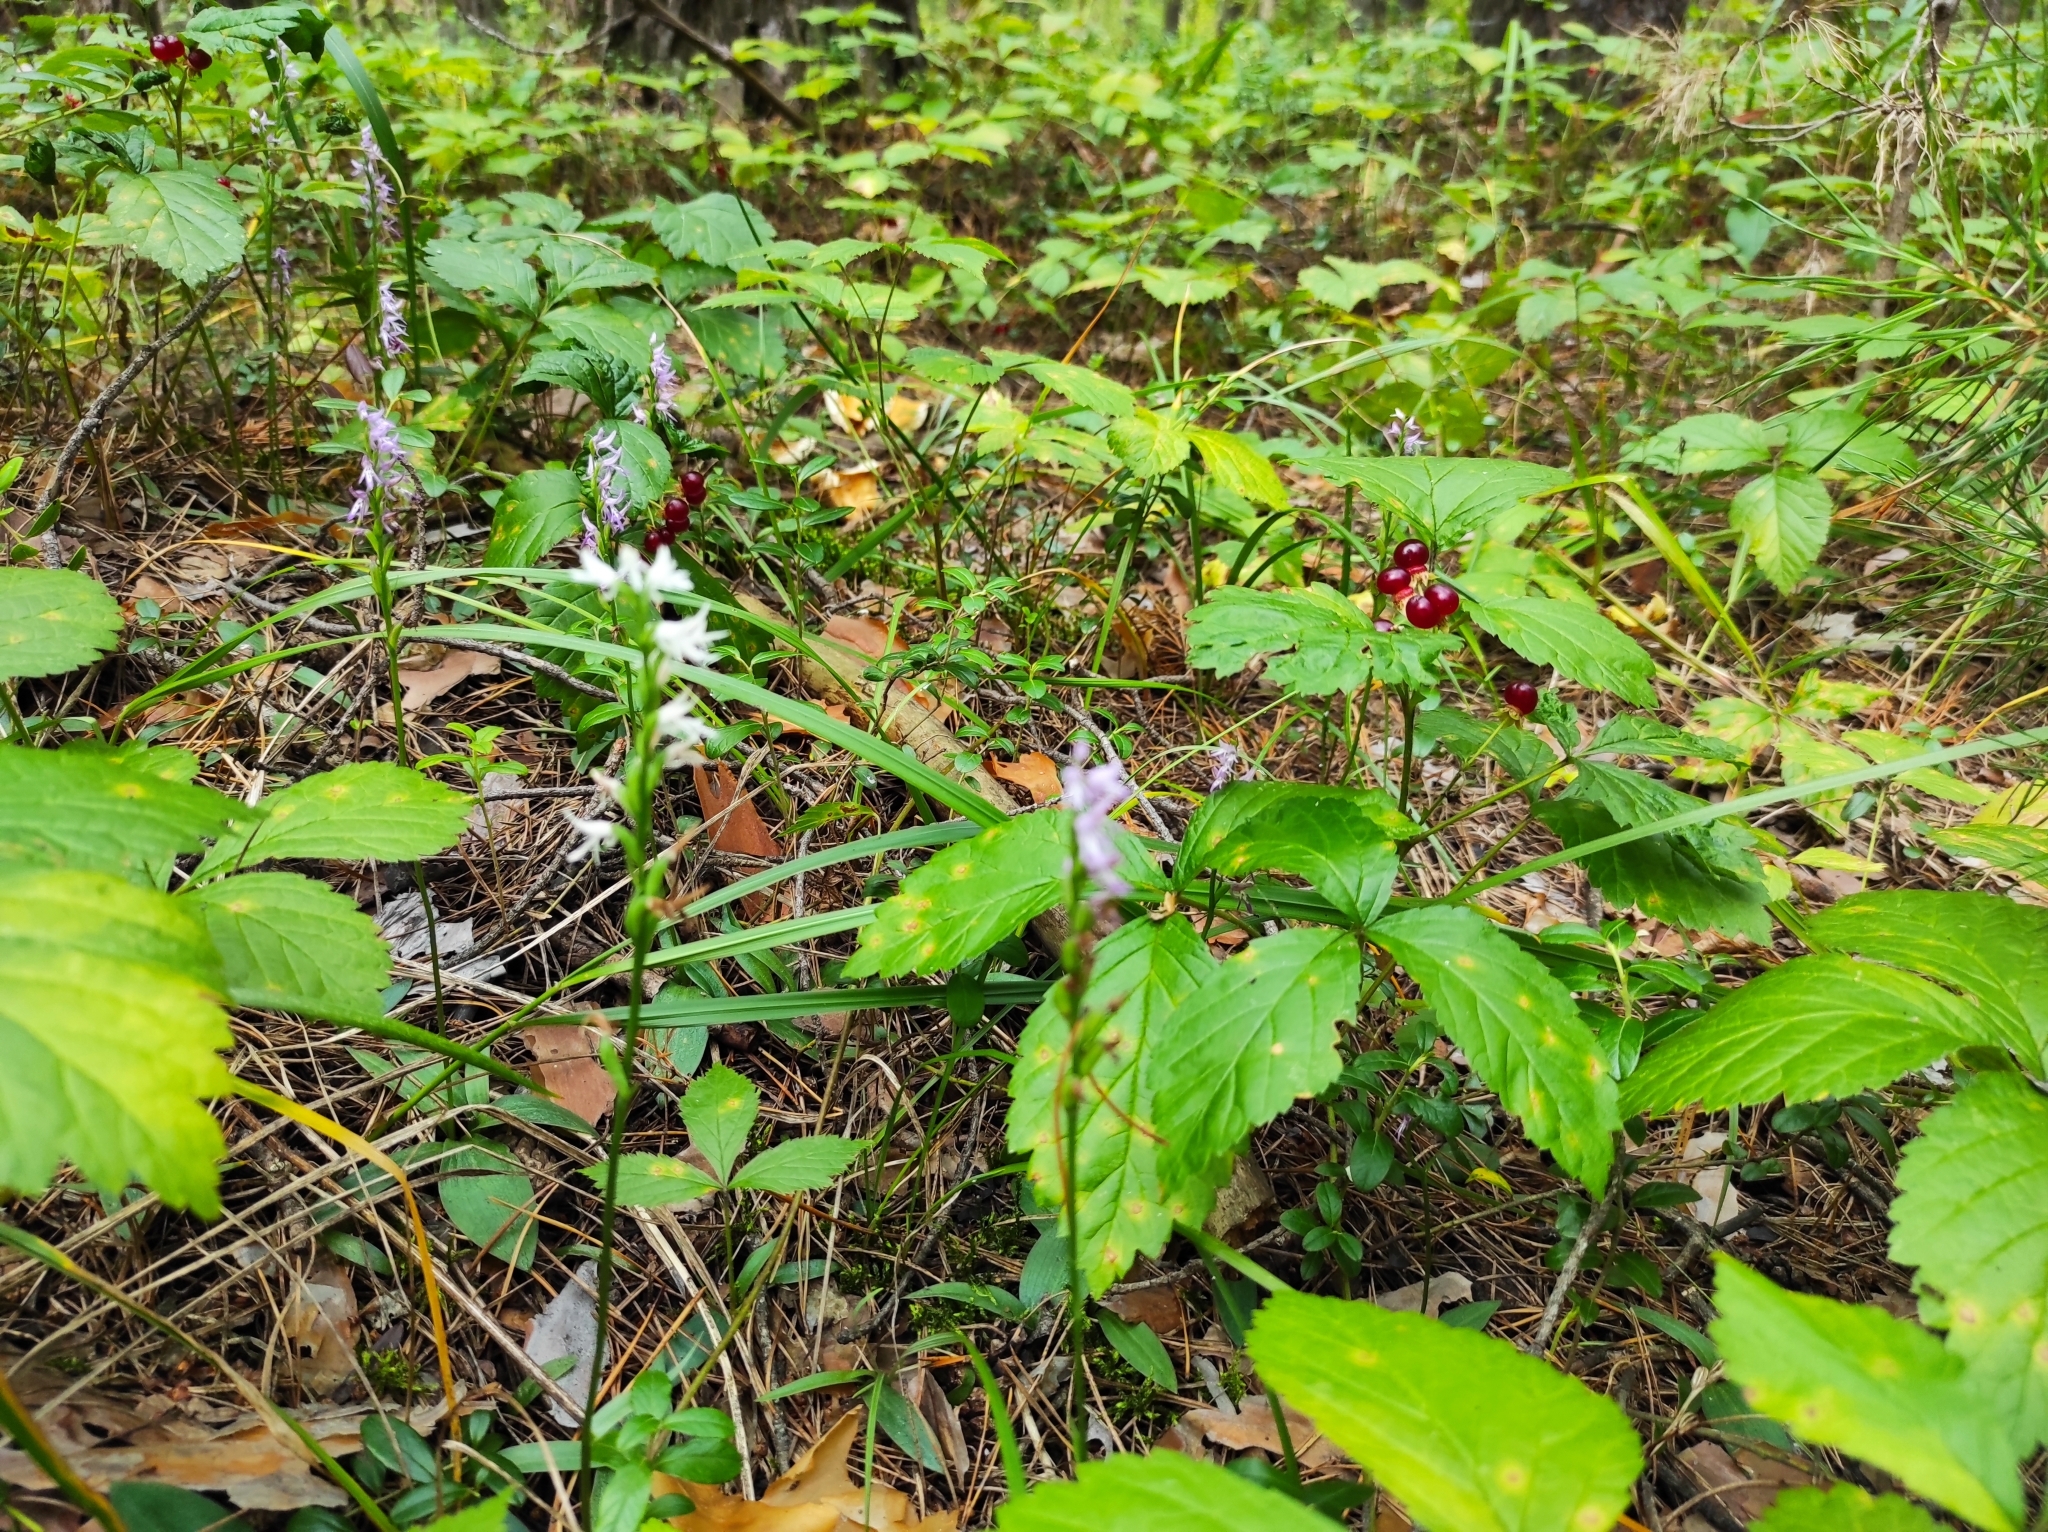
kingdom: Plantae
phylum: Tracheophyta
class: Liliopsida
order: Asparagales
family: Orchidaceae
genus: Hemipilia
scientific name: Hemipilia cucullata
